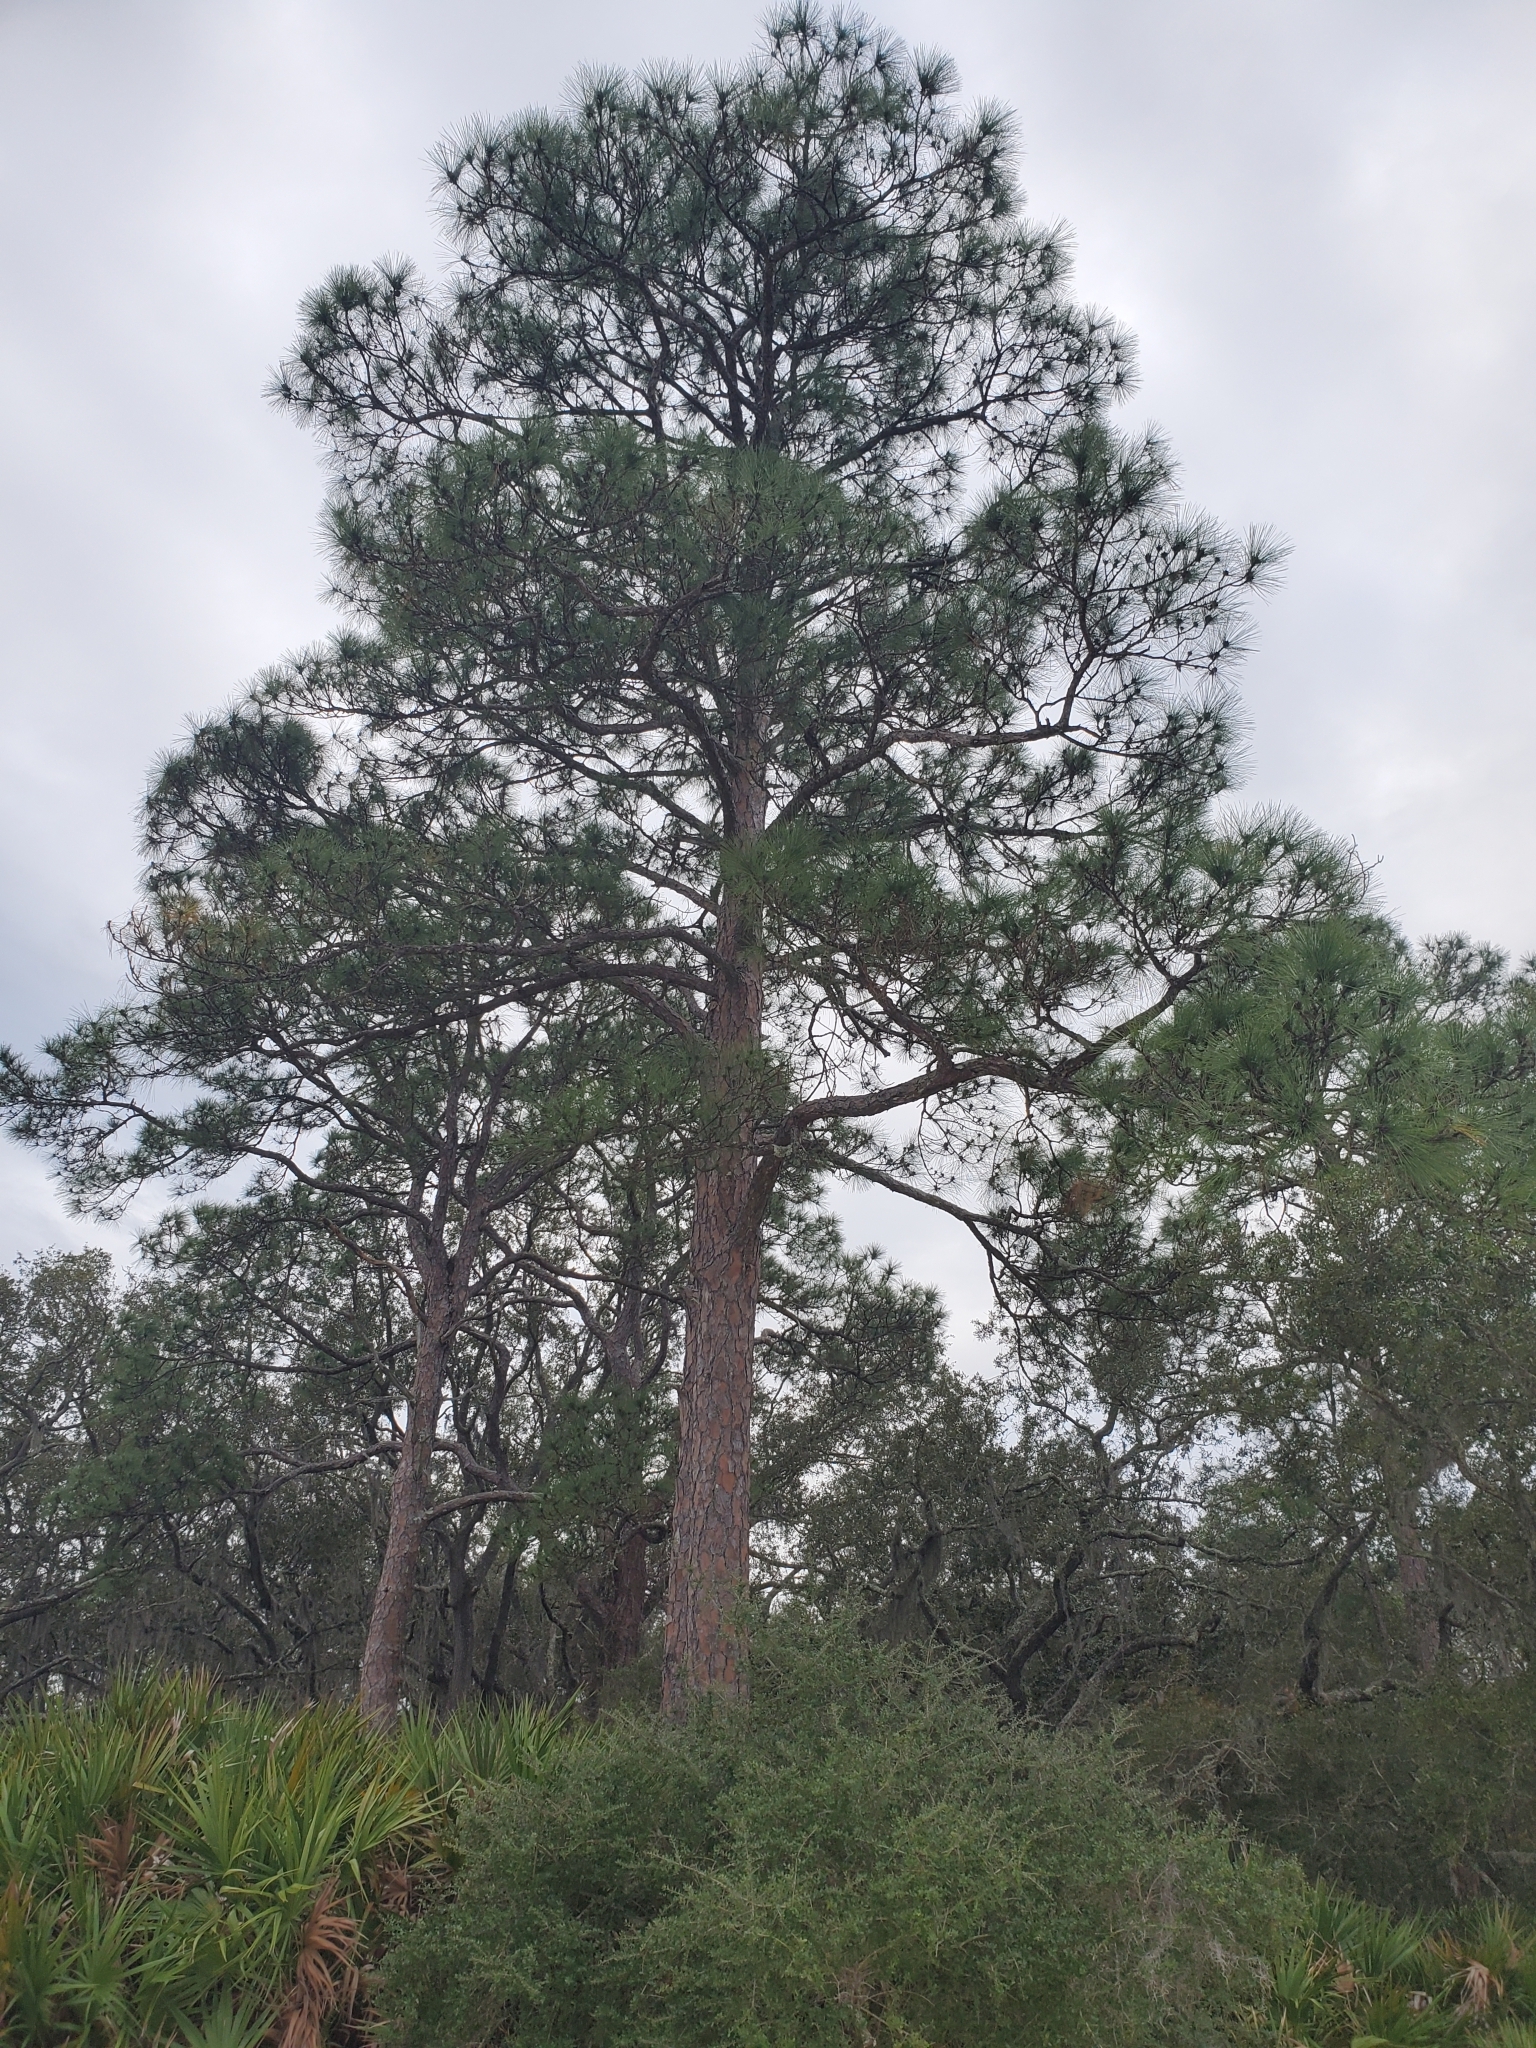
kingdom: Plantae
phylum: Tracheophyta
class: Pinopsida
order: Pinales
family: Pinaceae
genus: Pinus
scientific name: Pinus elliottii
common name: Slash pine
